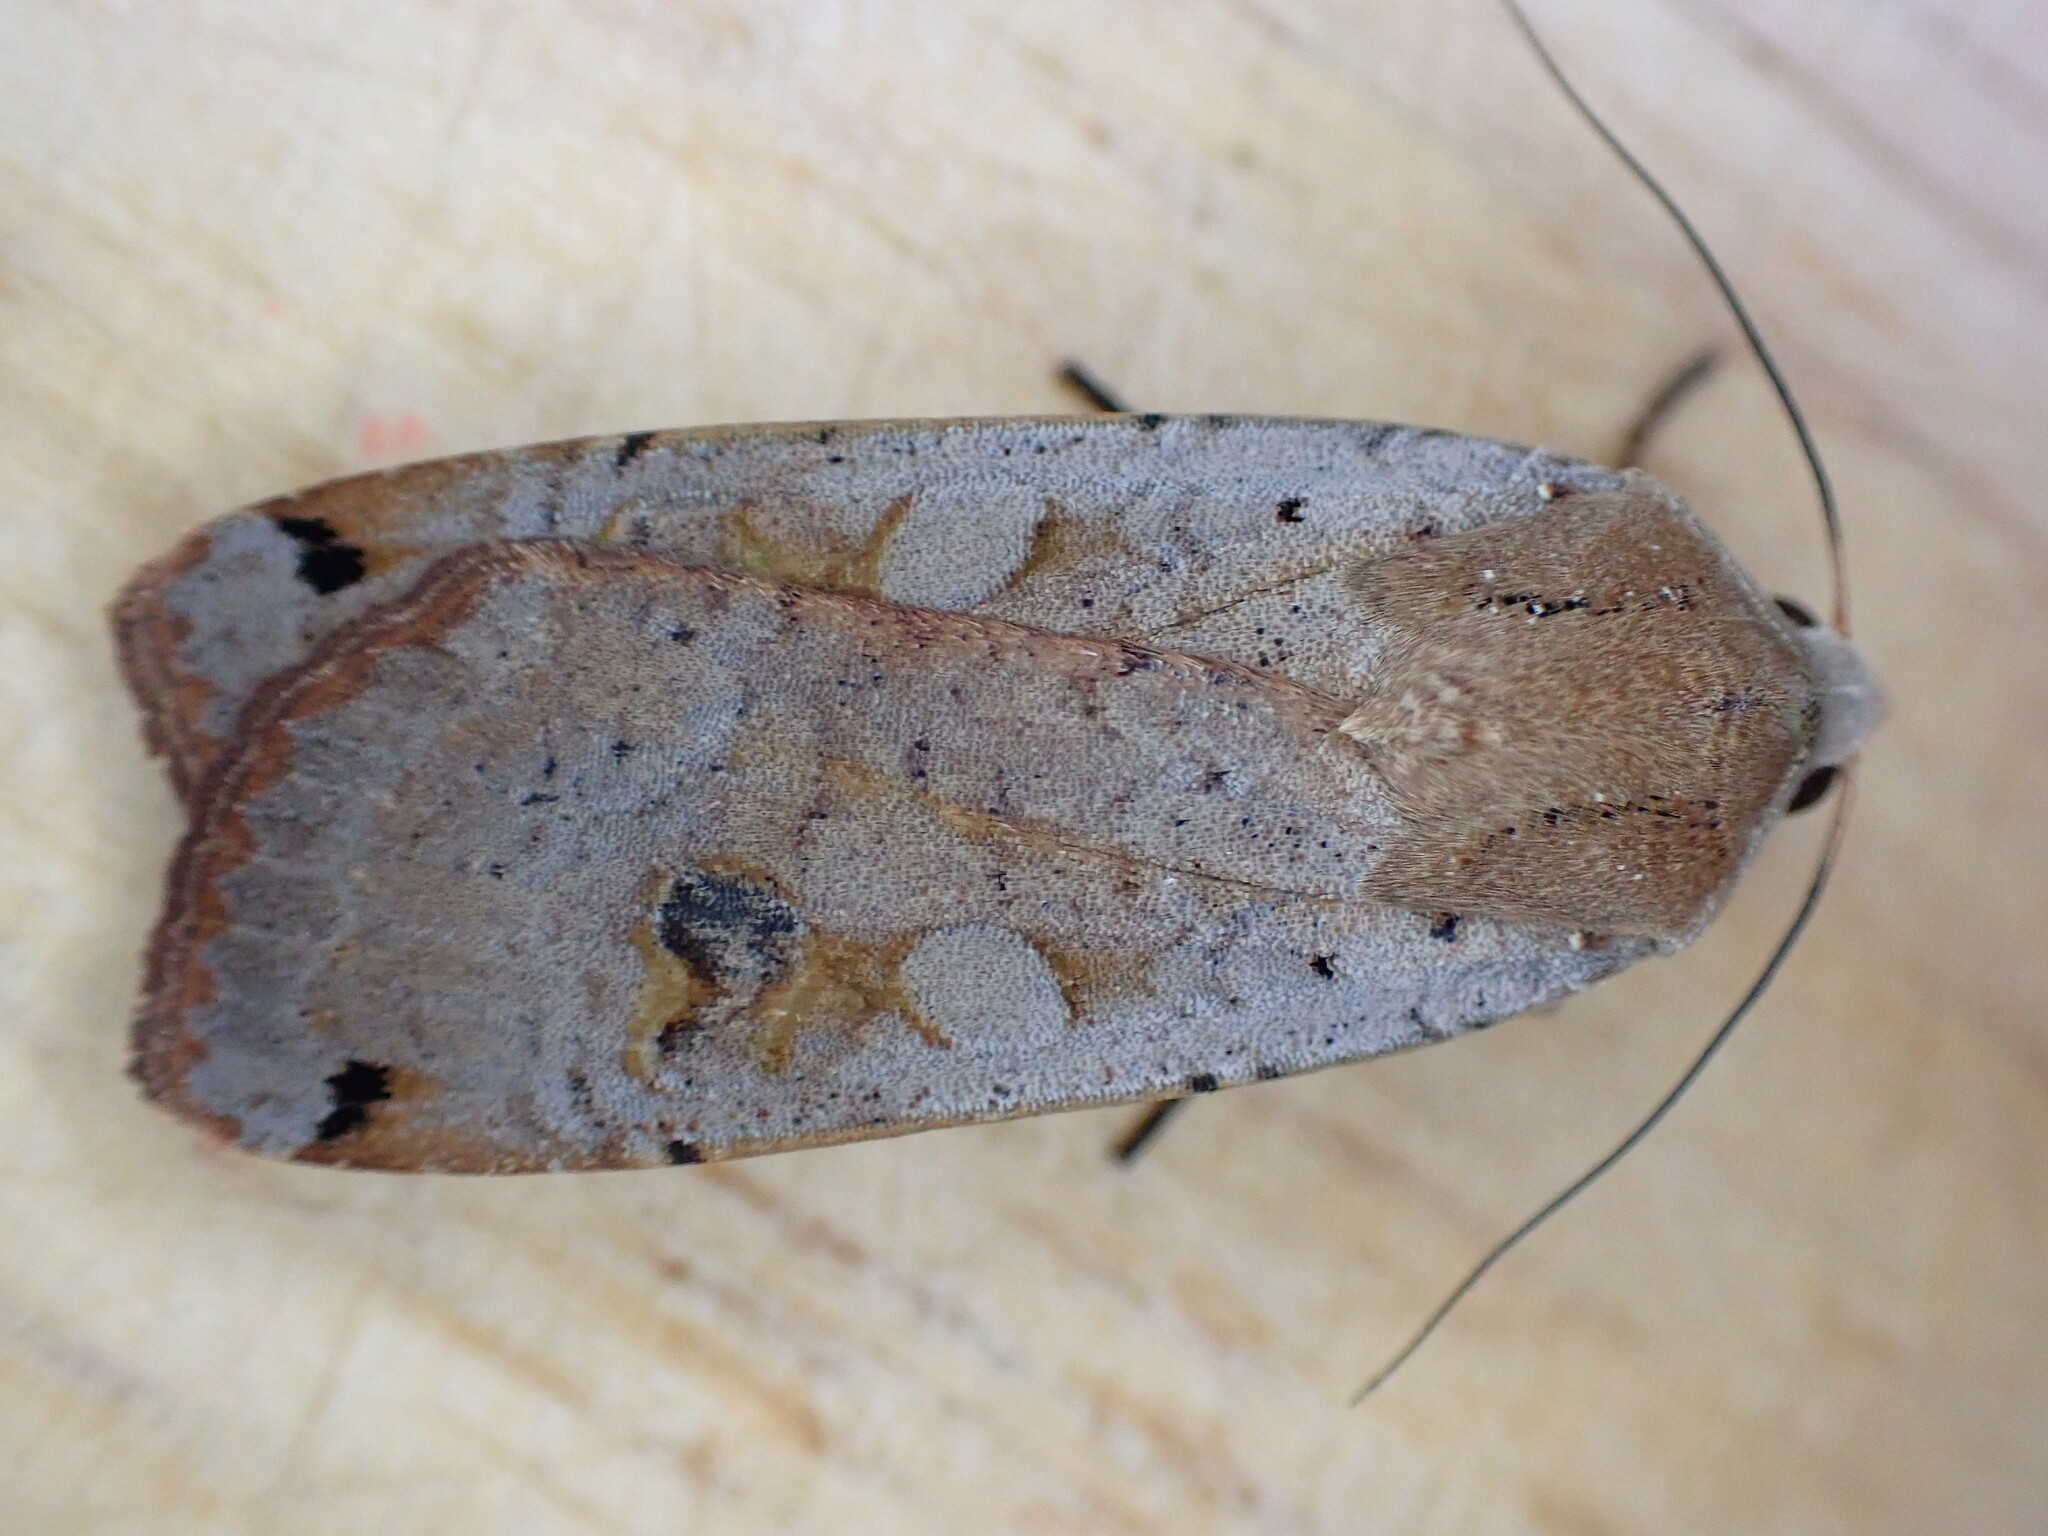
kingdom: Animalia
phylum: Arthropoda
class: Insecta
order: Lepidoptera
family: Noctuidae
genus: Noctua
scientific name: Noctua pronuba
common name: Large yellow underwing
